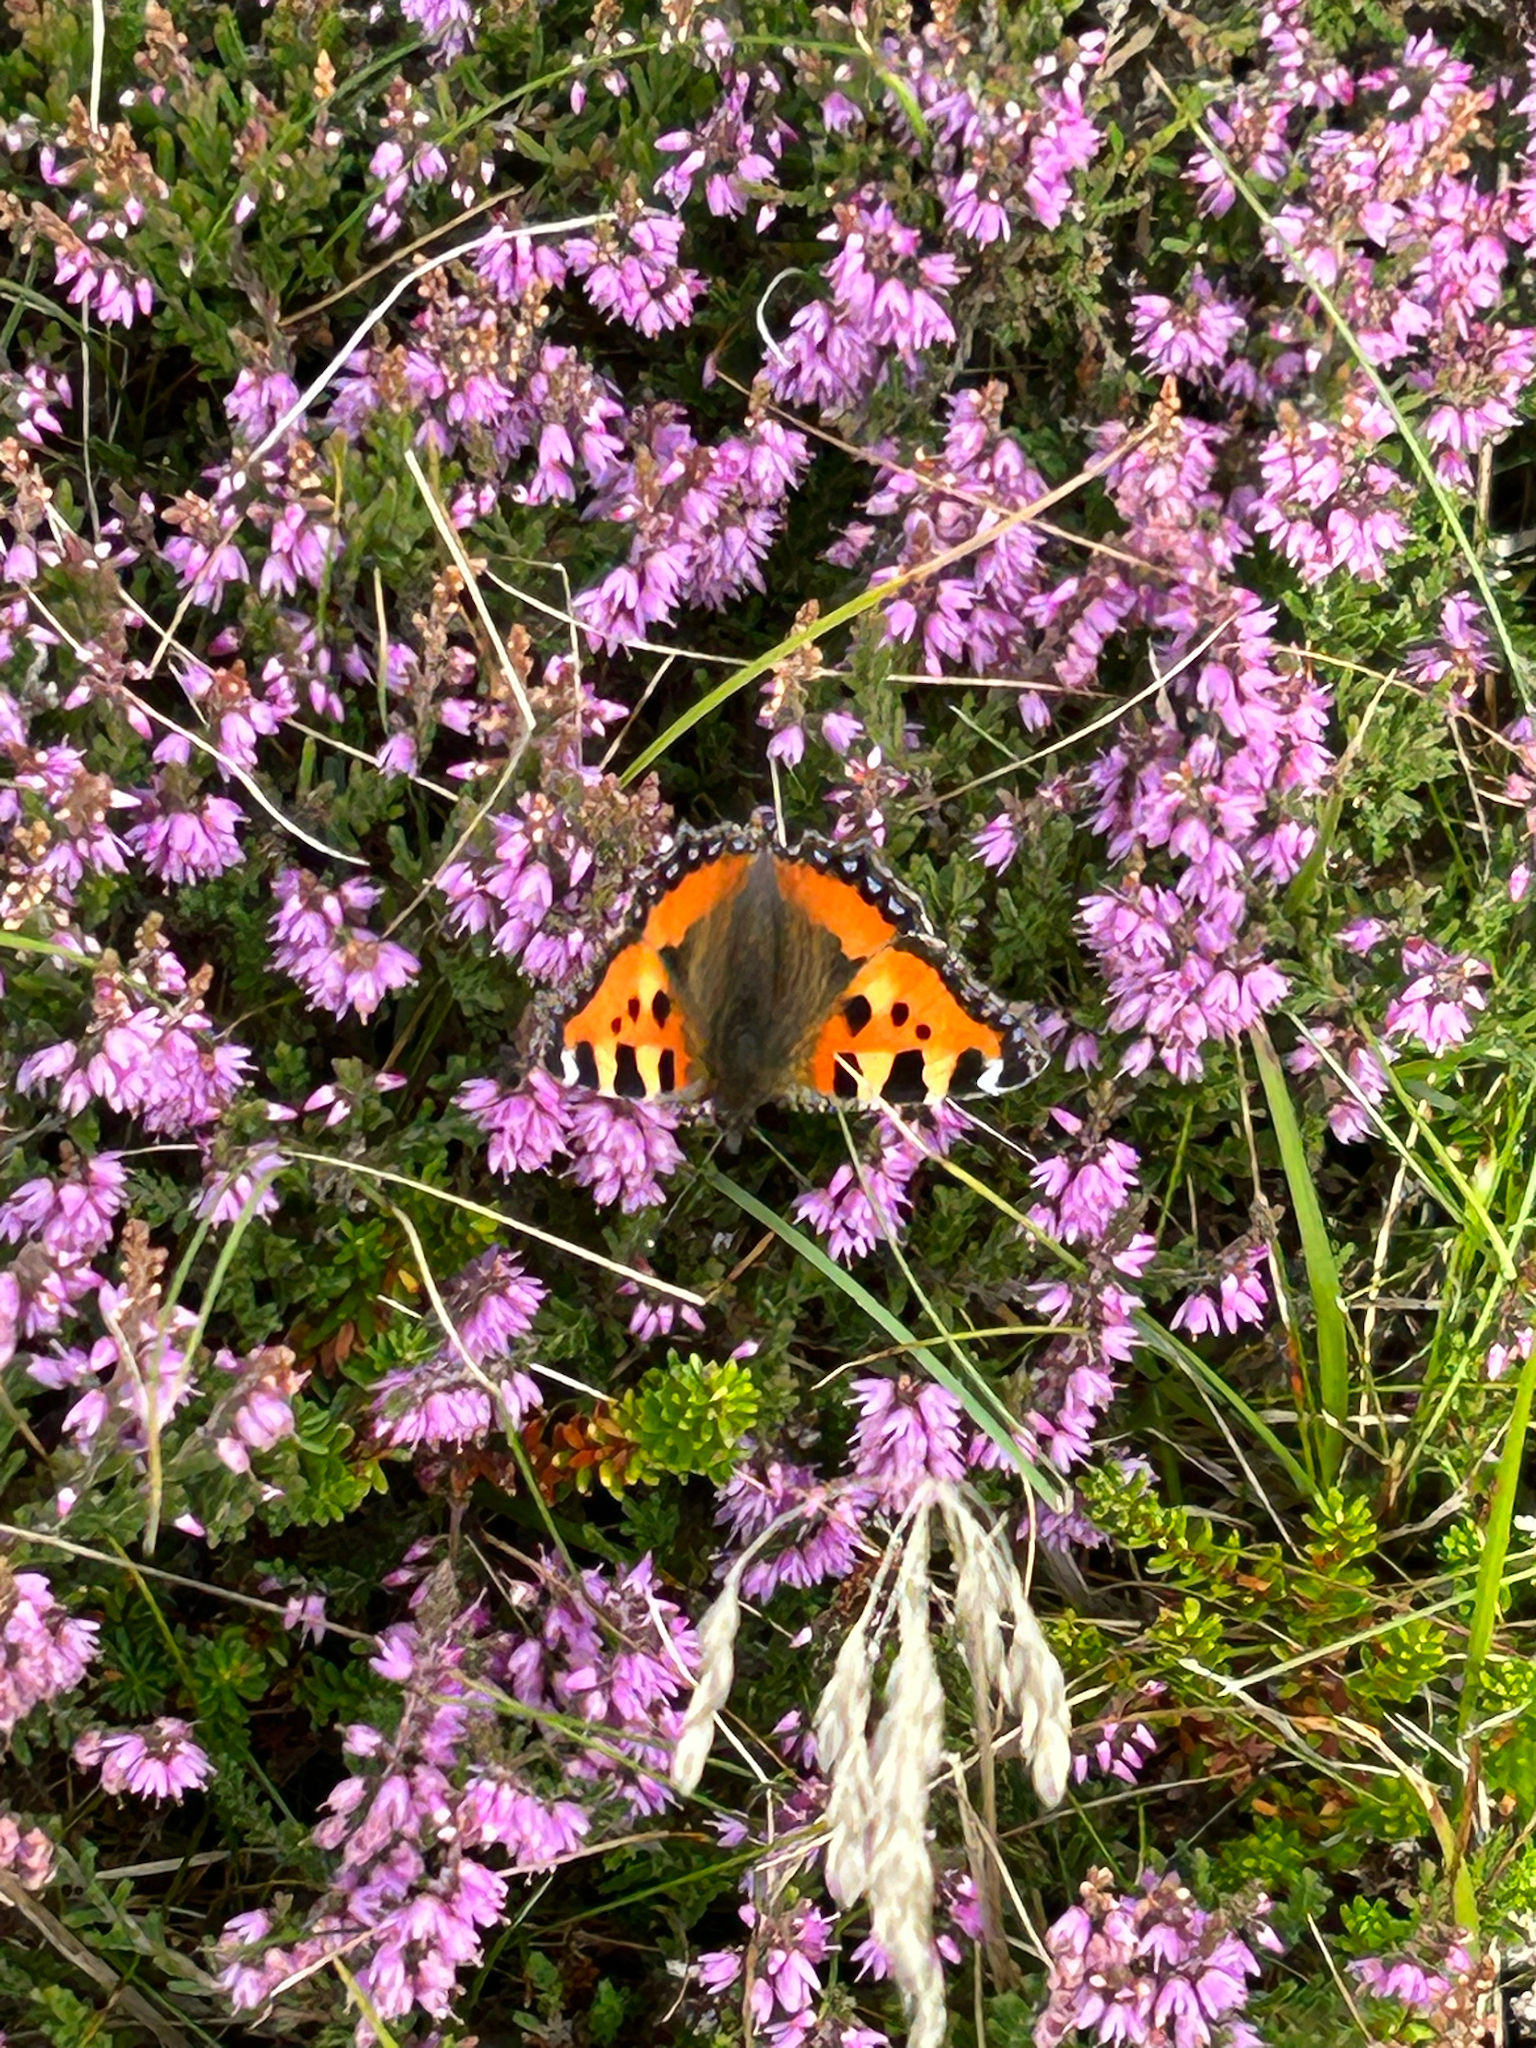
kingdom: Animalia
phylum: Arthropoda
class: Insecta
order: Lepidoptera
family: Nymphalidae
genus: Aglais
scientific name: Aglais urticae
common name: Small tortoiseshell
